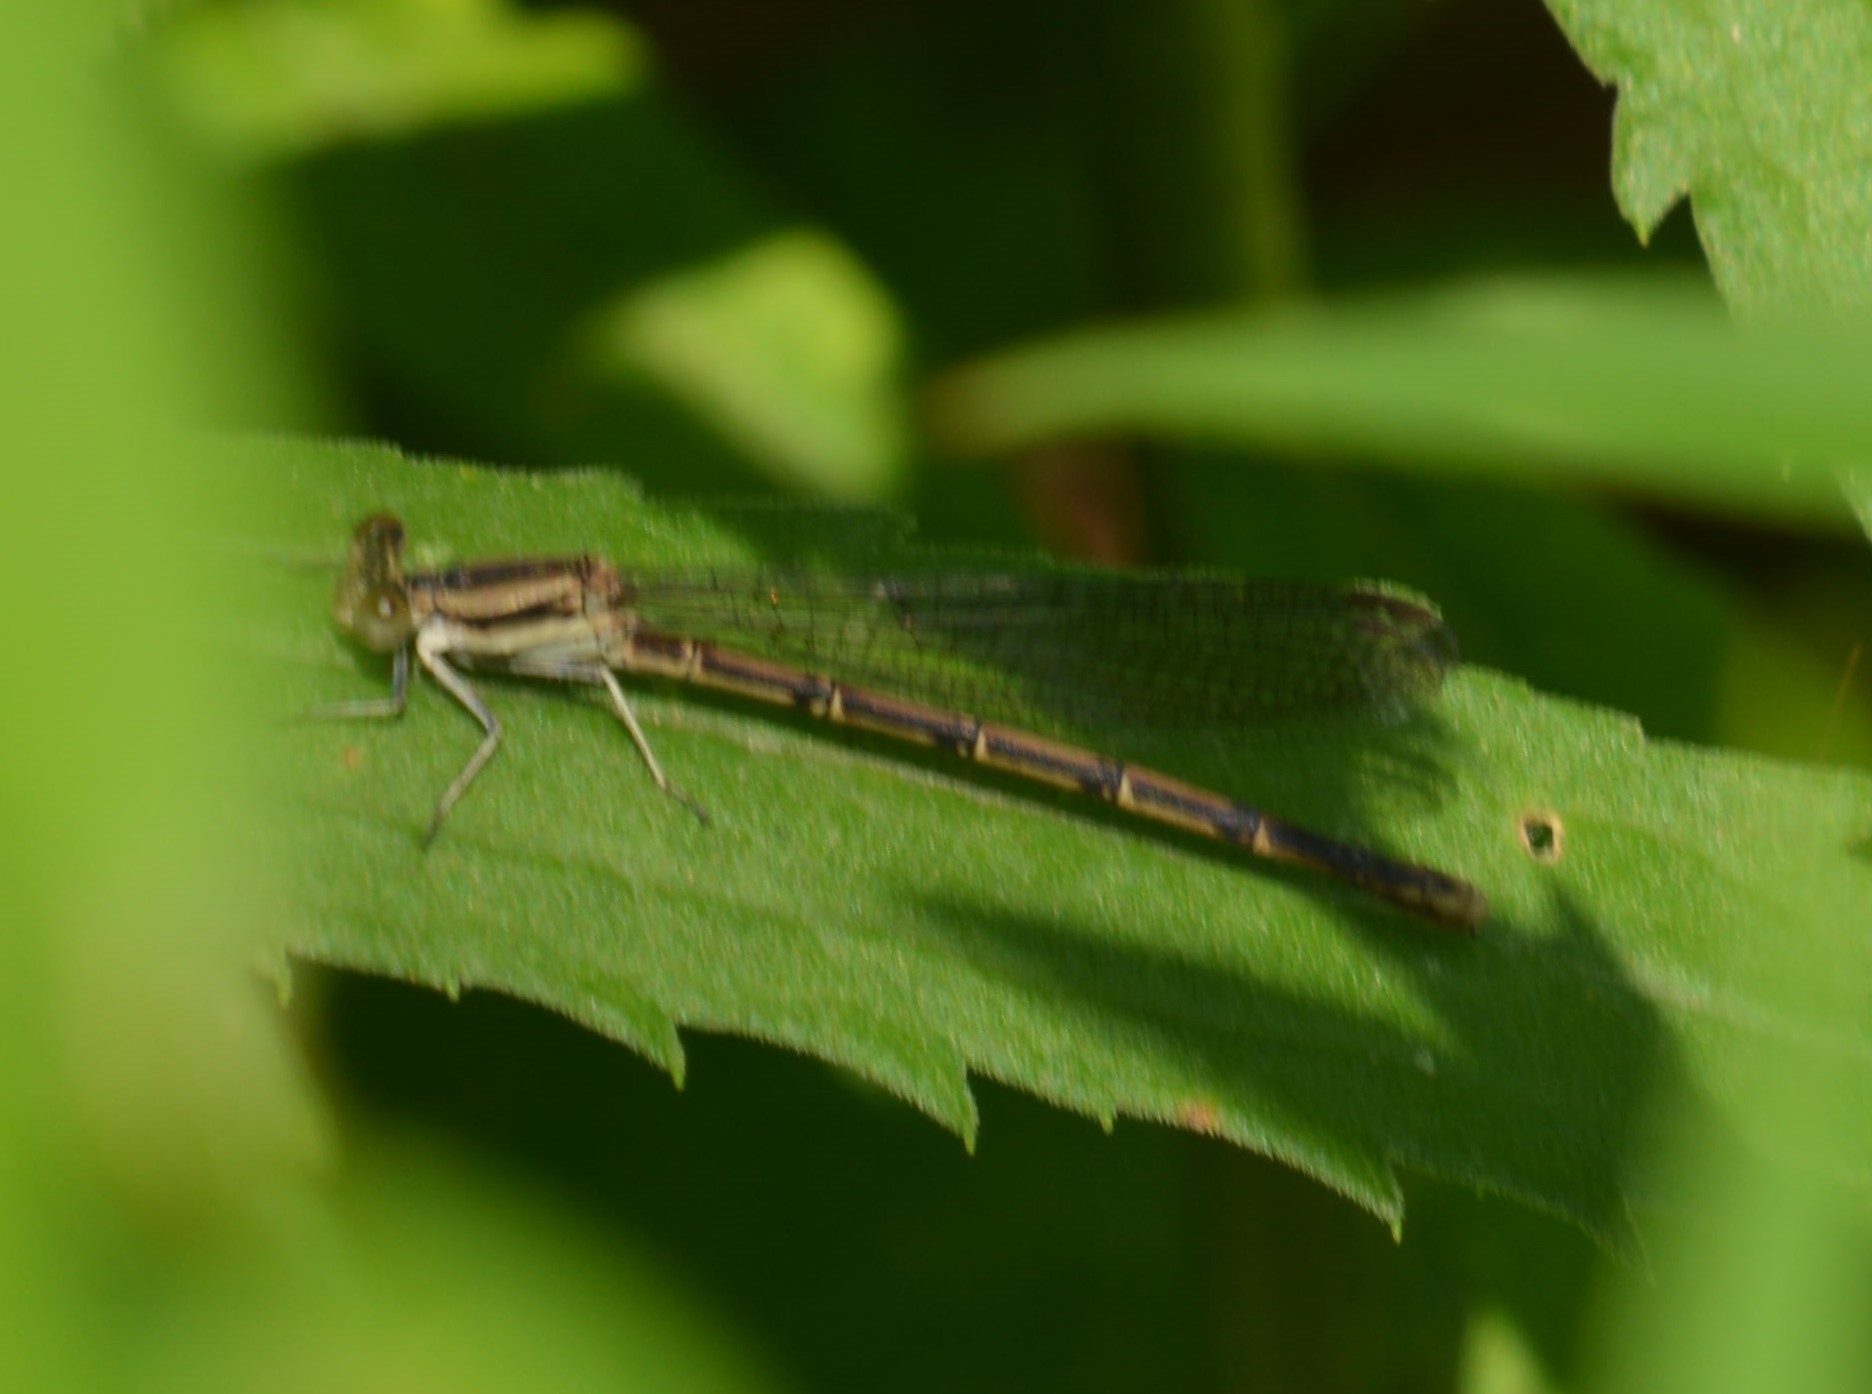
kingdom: Animalia
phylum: Arthropoda
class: Insecta
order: Odonata
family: Coenagrionidae
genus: Argia
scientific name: Argia fumipennis
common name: Variable dancer
